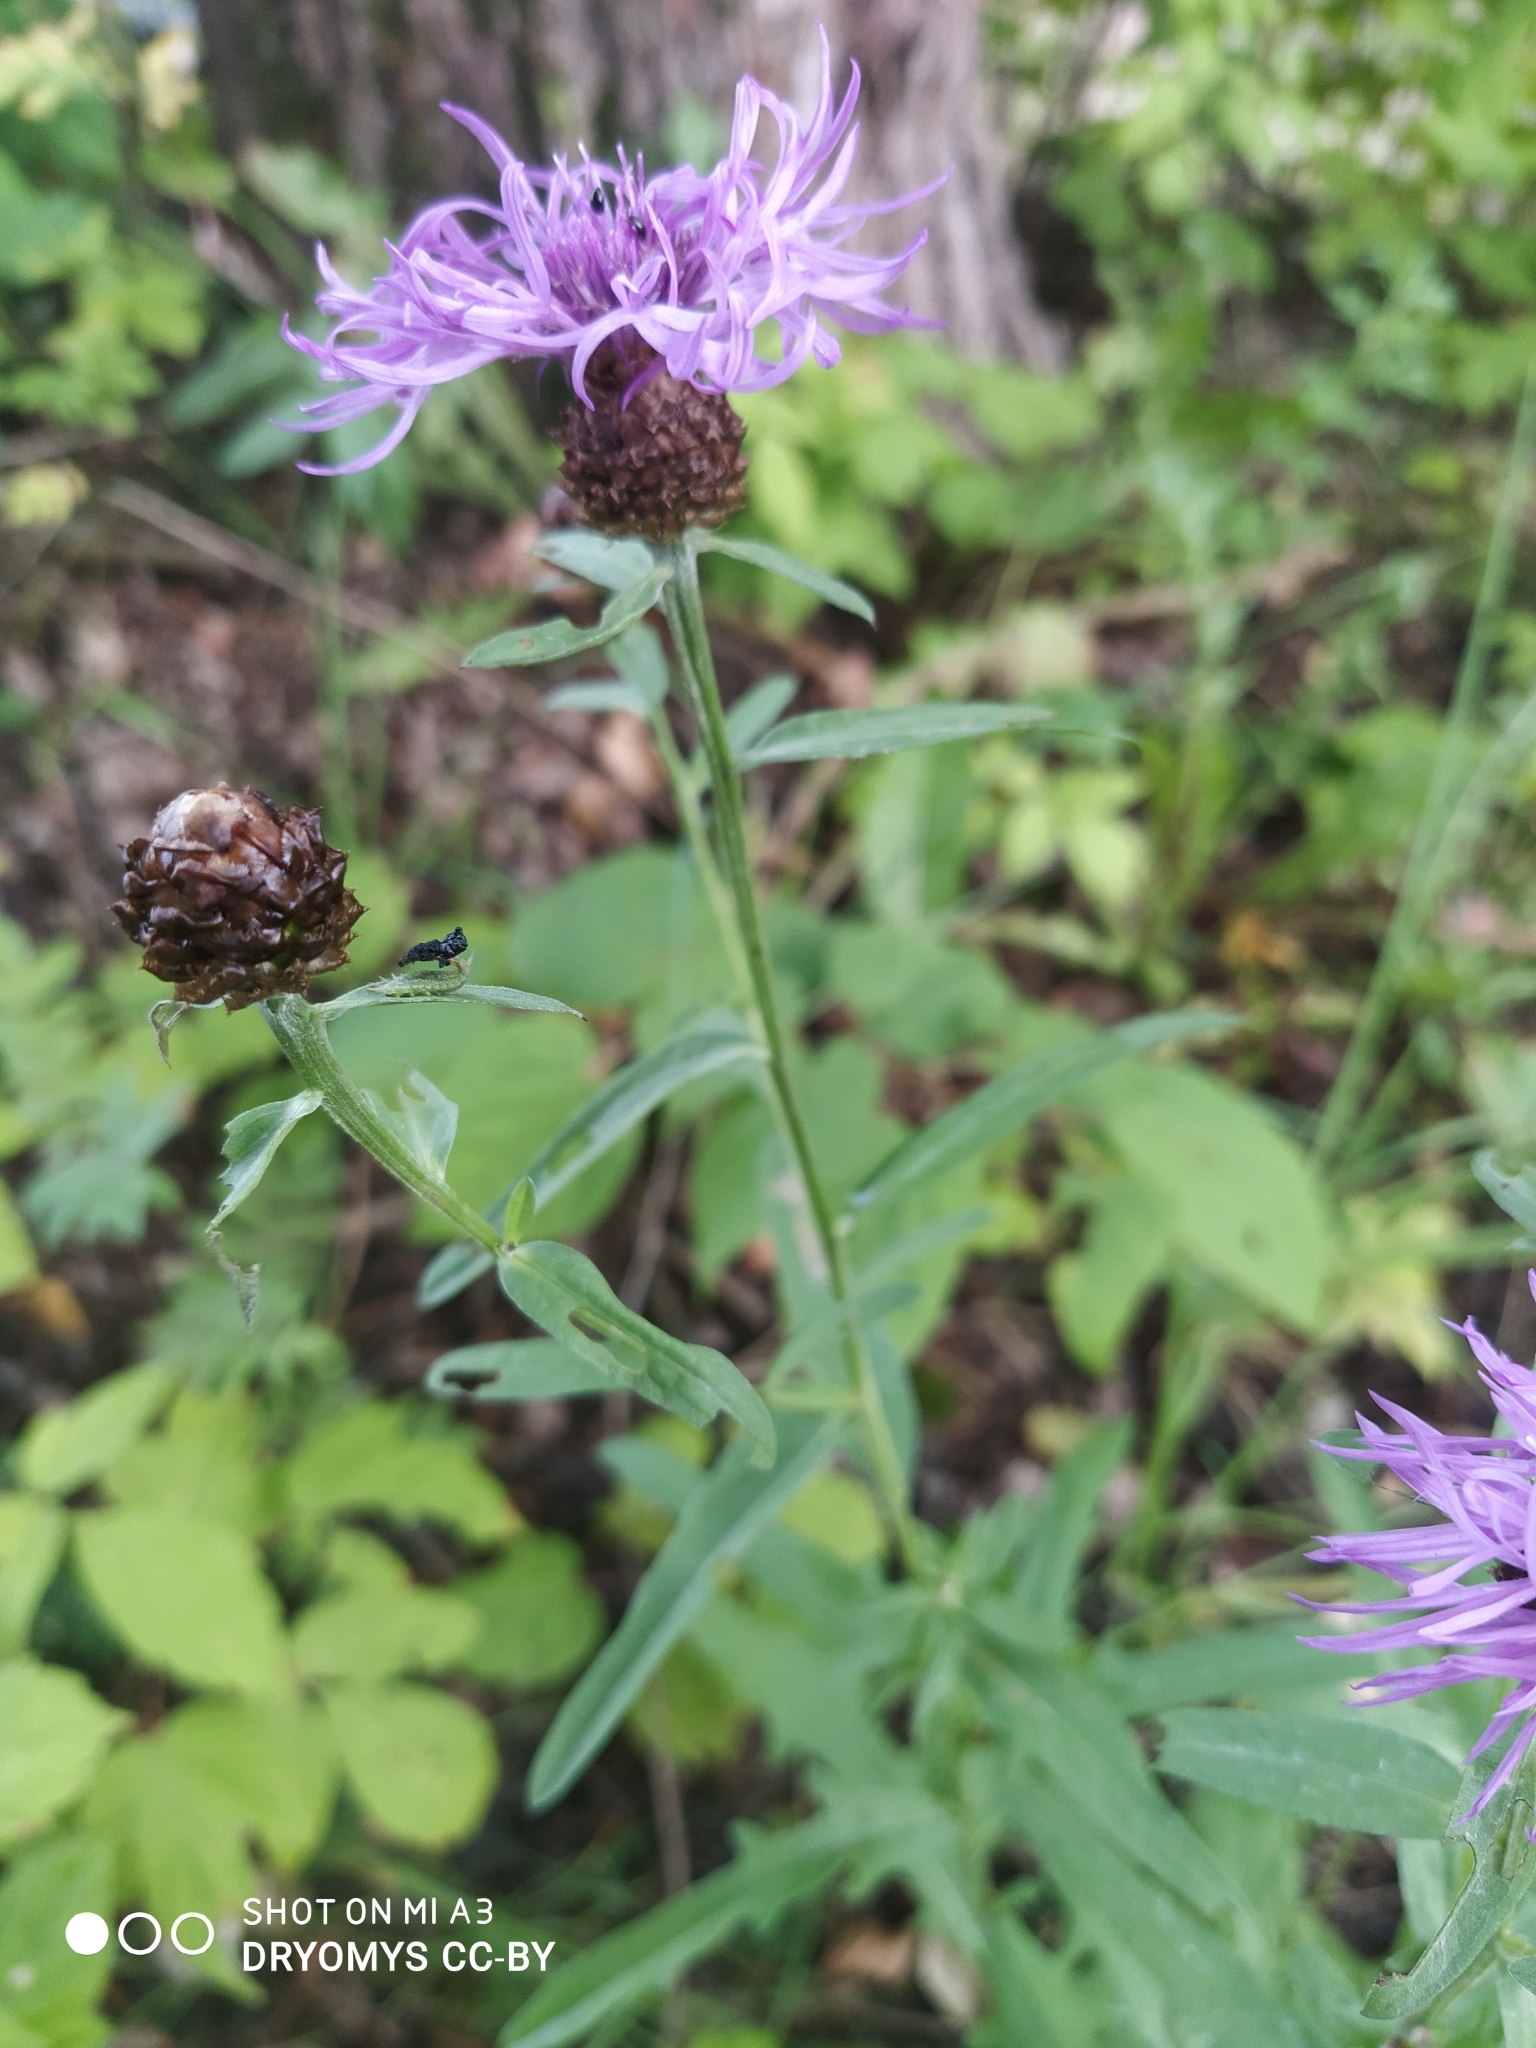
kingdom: Plantae
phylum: Tracheophyta
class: Magnoliopsida
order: Asterales
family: Asteraceae
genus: Centaurea
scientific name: Centaurea jacea
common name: Brown knapweed
